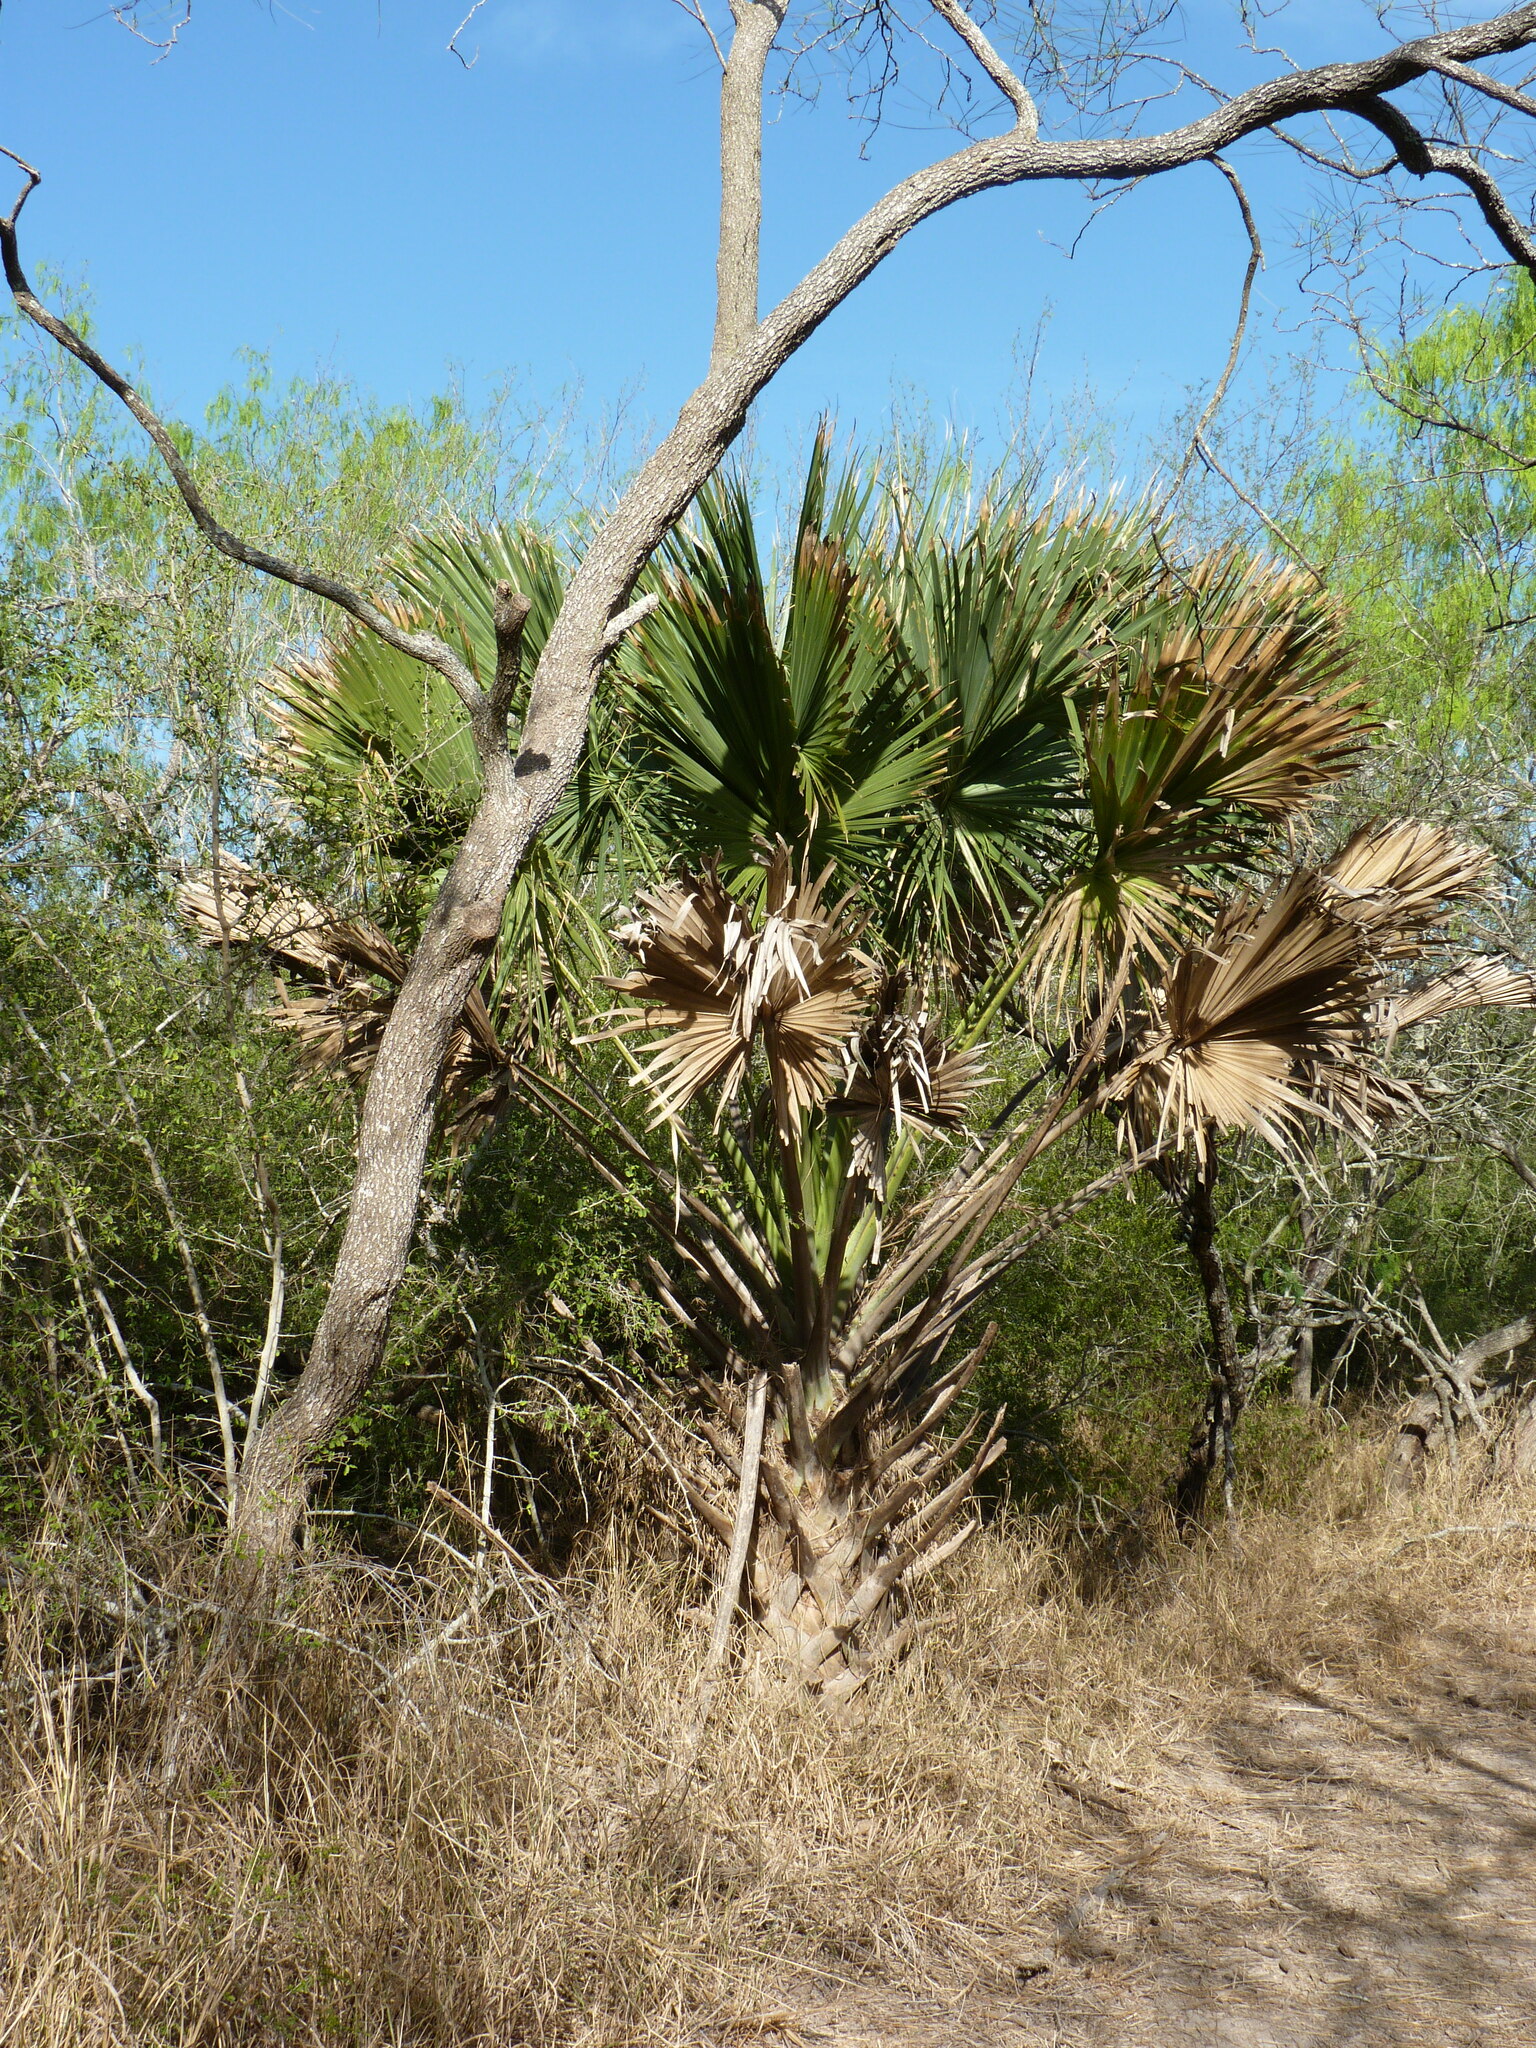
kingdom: Plantae
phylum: Tracheophyta
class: Liliopsida
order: Arecales
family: Arecaceae
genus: Sabal
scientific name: Sabal mexicana
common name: Texas palmetto
